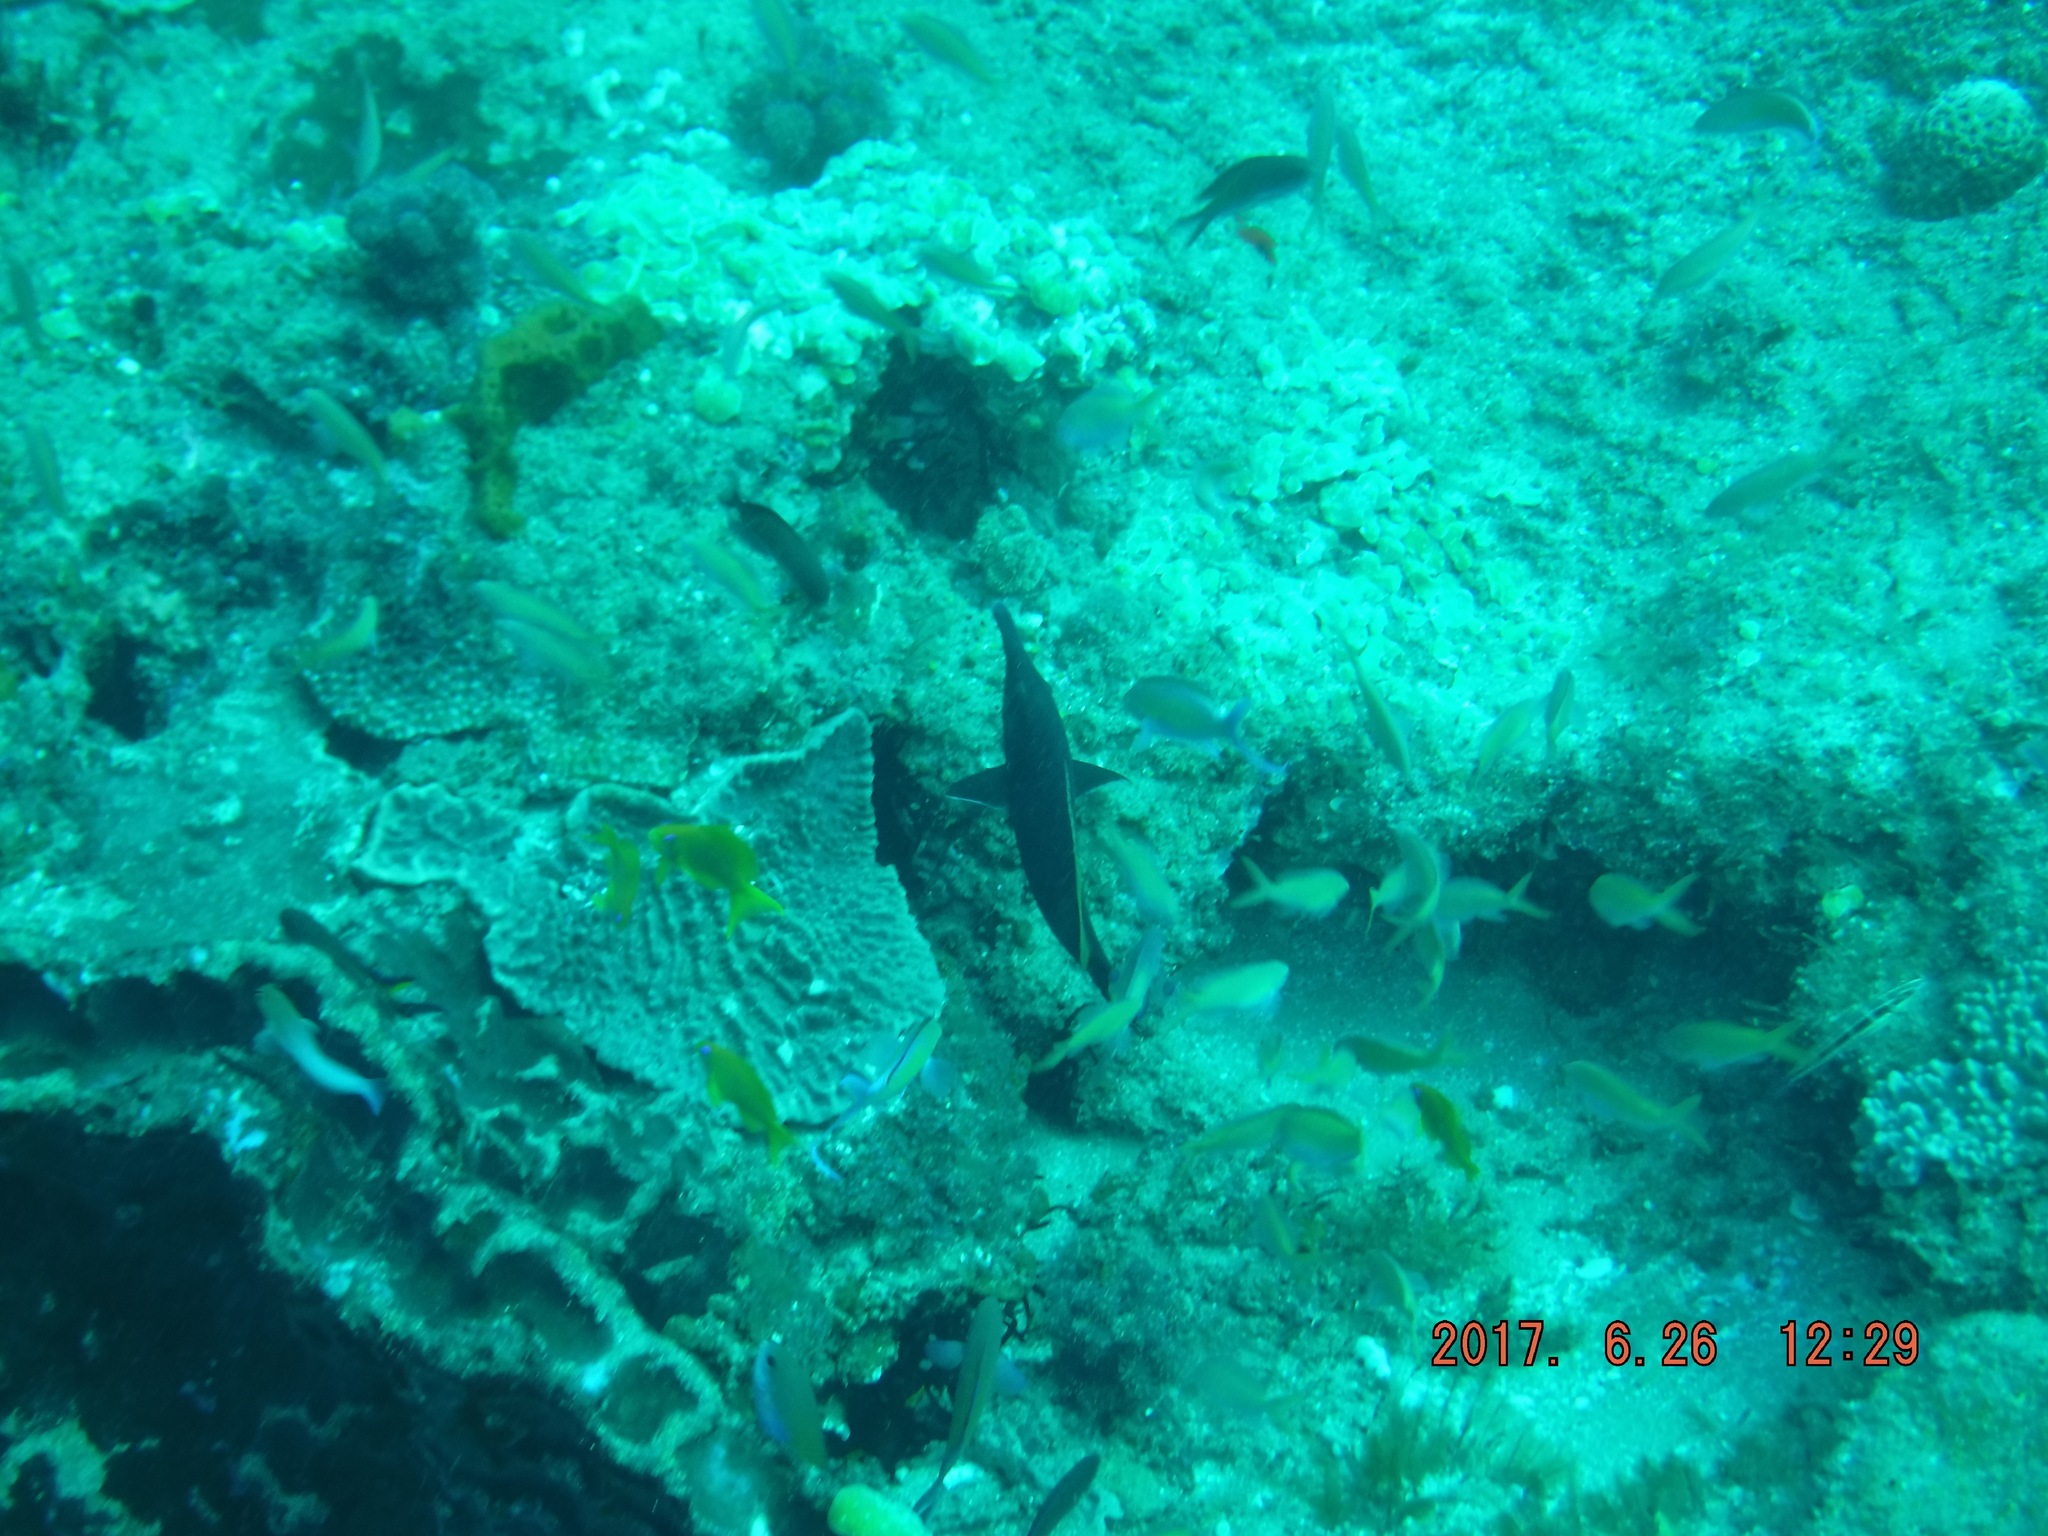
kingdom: Animalia
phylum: Chordata
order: Perciformes
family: Labridae
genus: Gomphosus
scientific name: Gomphosus caeruleus
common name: Bird wrasse
